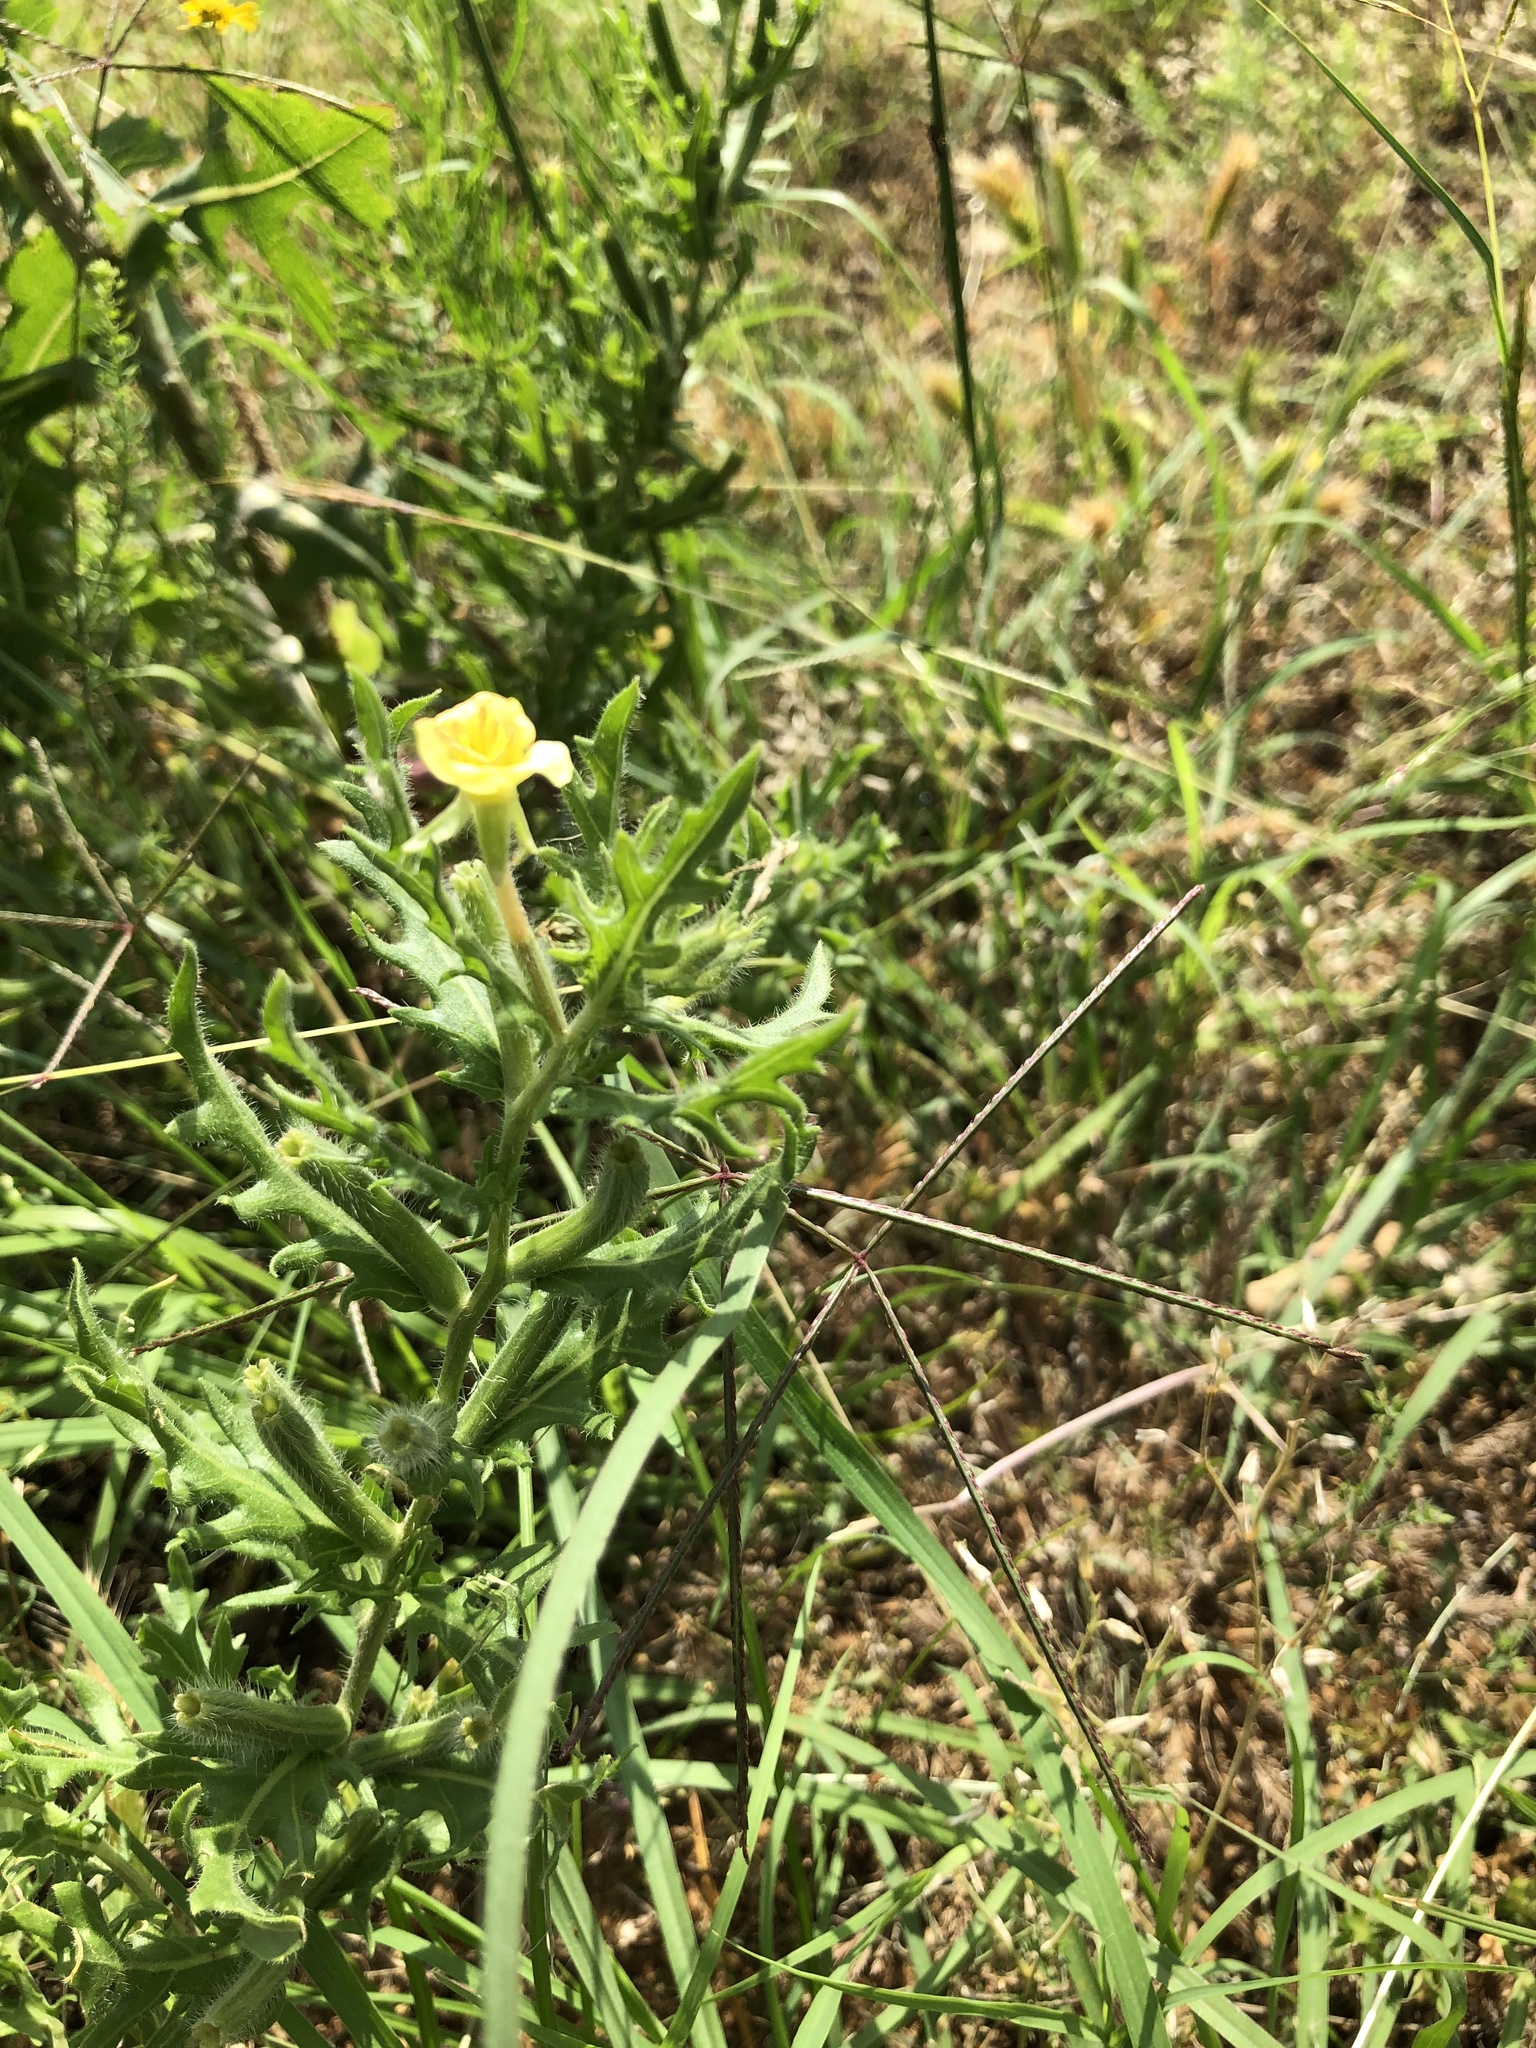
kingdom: Plantae
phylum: Tracheophyta
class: Magnoliopsida
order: Myrtales
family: Onagraceae
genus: Oenothera
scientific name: Oenothera laciniata
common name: Cut-leaved evening-primrose
